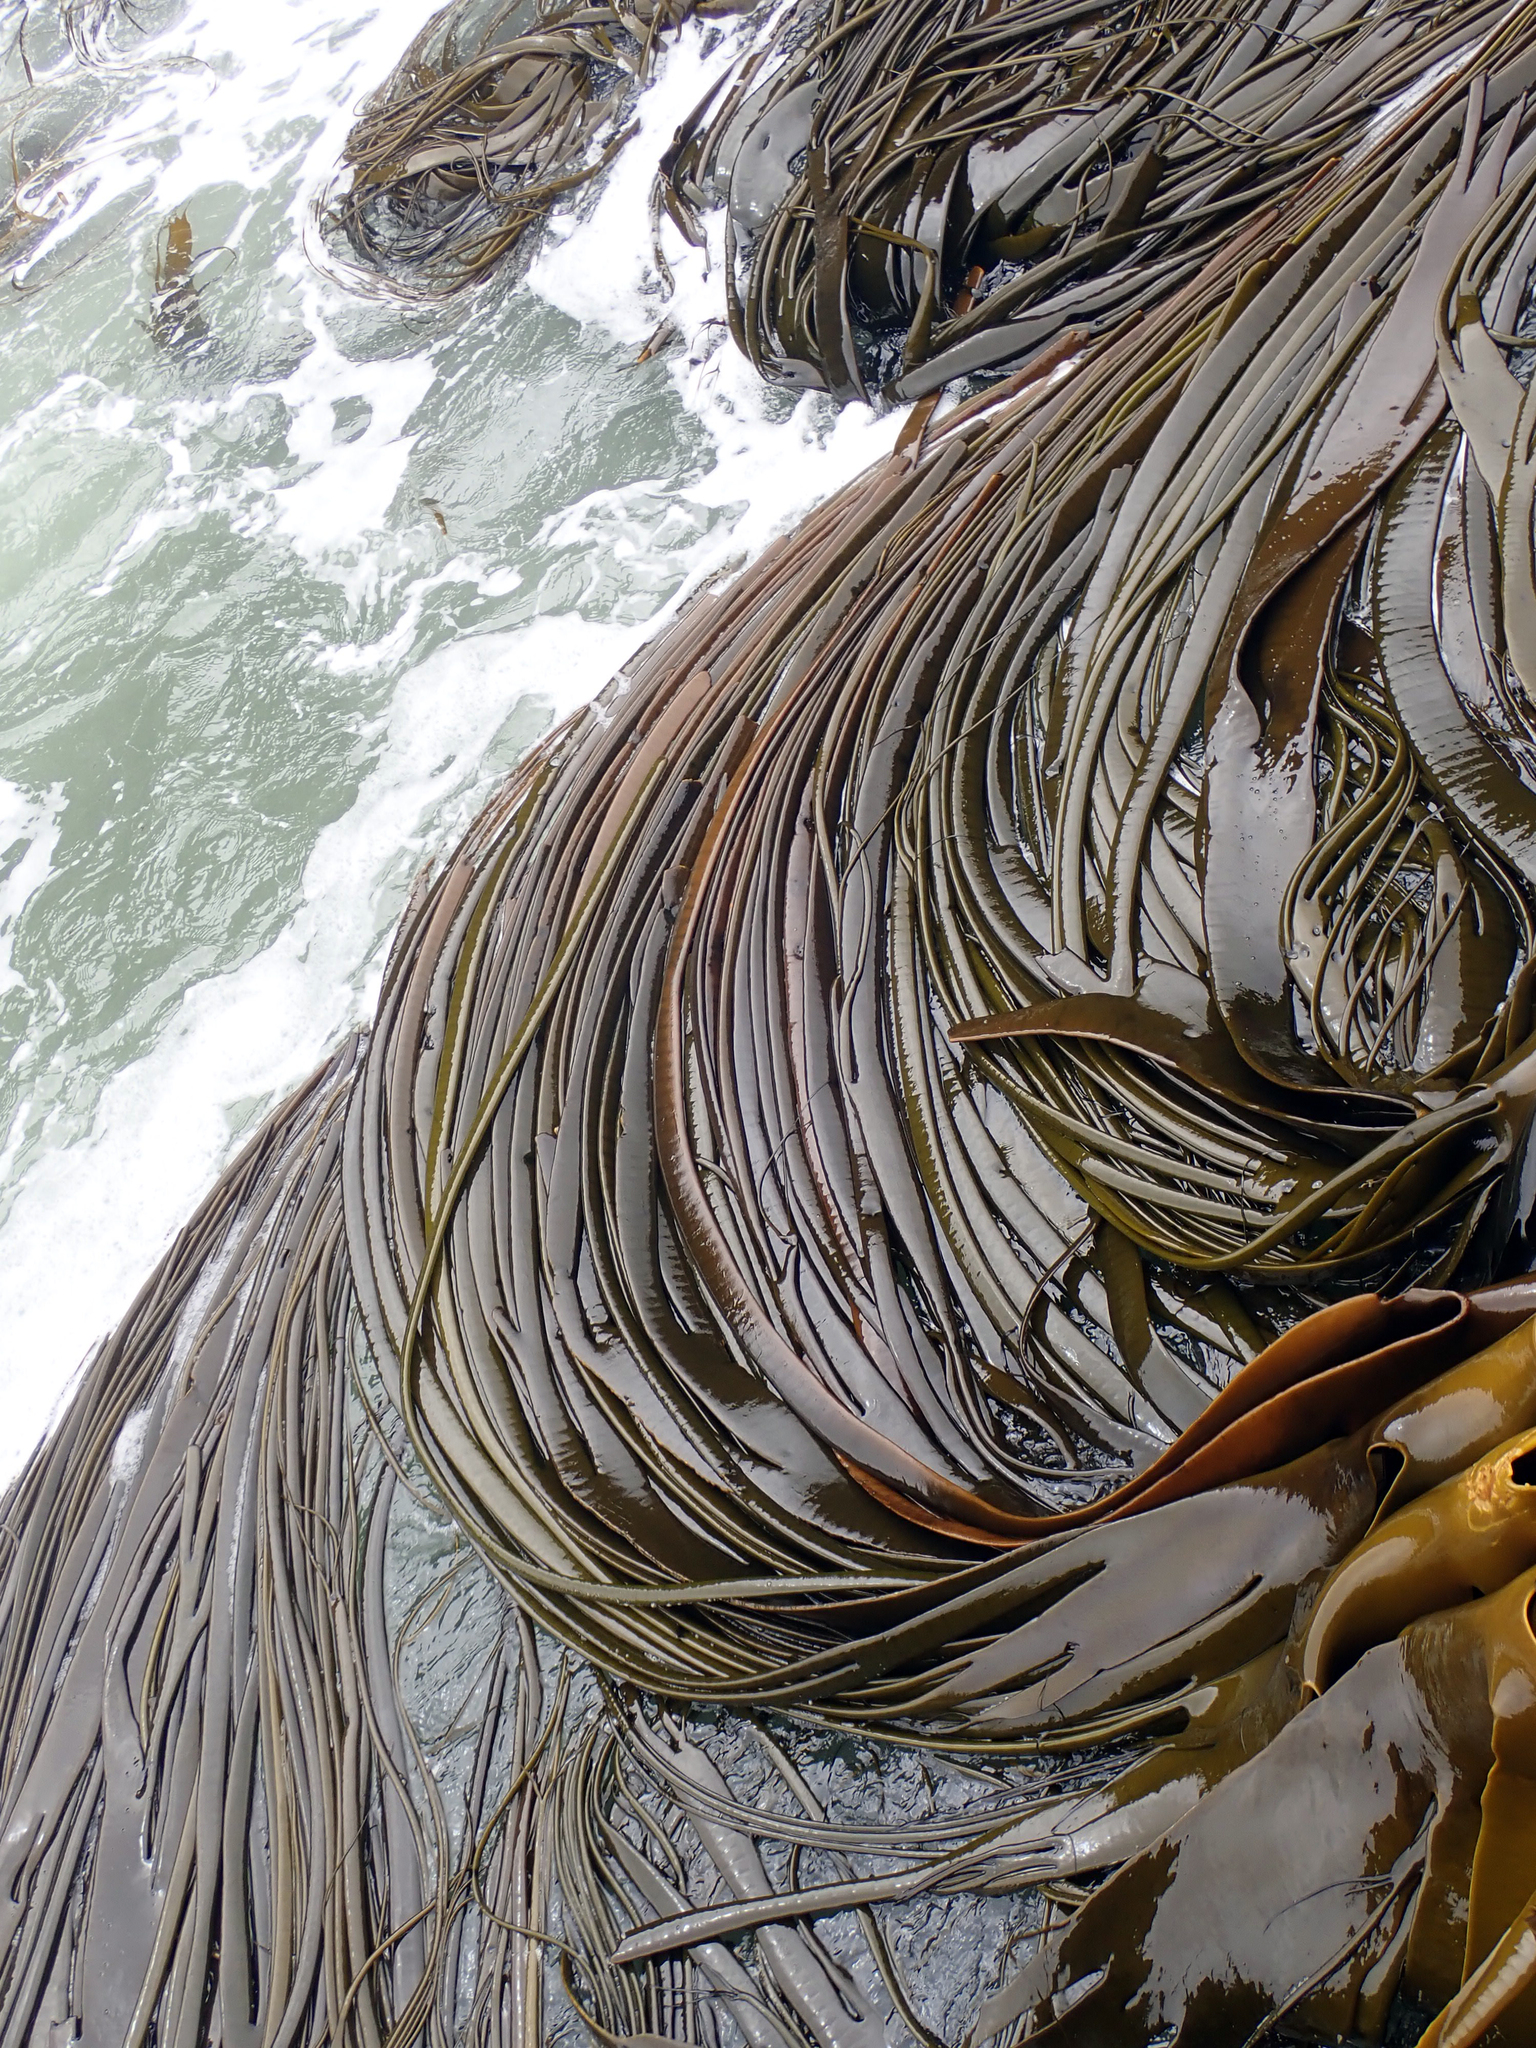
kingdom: Chromista
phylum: Ochrophyta
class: Phaeophyceae
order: Fucales
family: Durvillaeaceae
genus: Durvillaea
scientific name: Durvillaea antarctica
